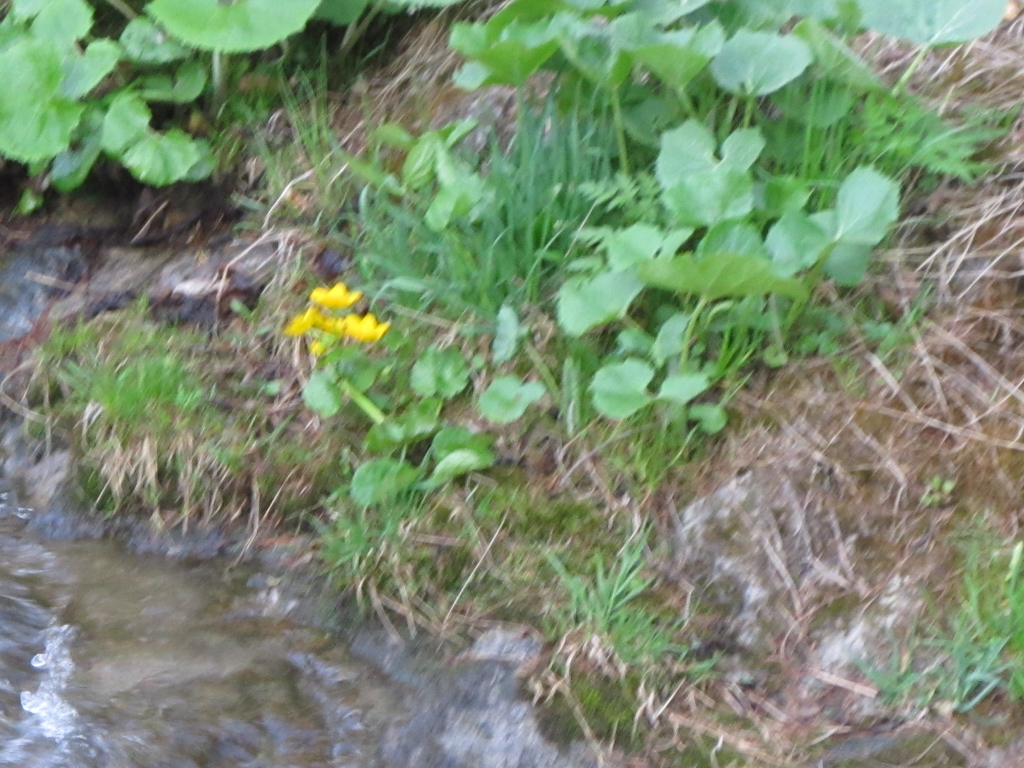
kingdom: Plantae
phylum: Tracheophyta
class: Magnoliopsida
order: Ranunculales
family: Ranunculaceae
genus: Caltha
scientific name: Caltha palustris
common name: Marsh marigold
